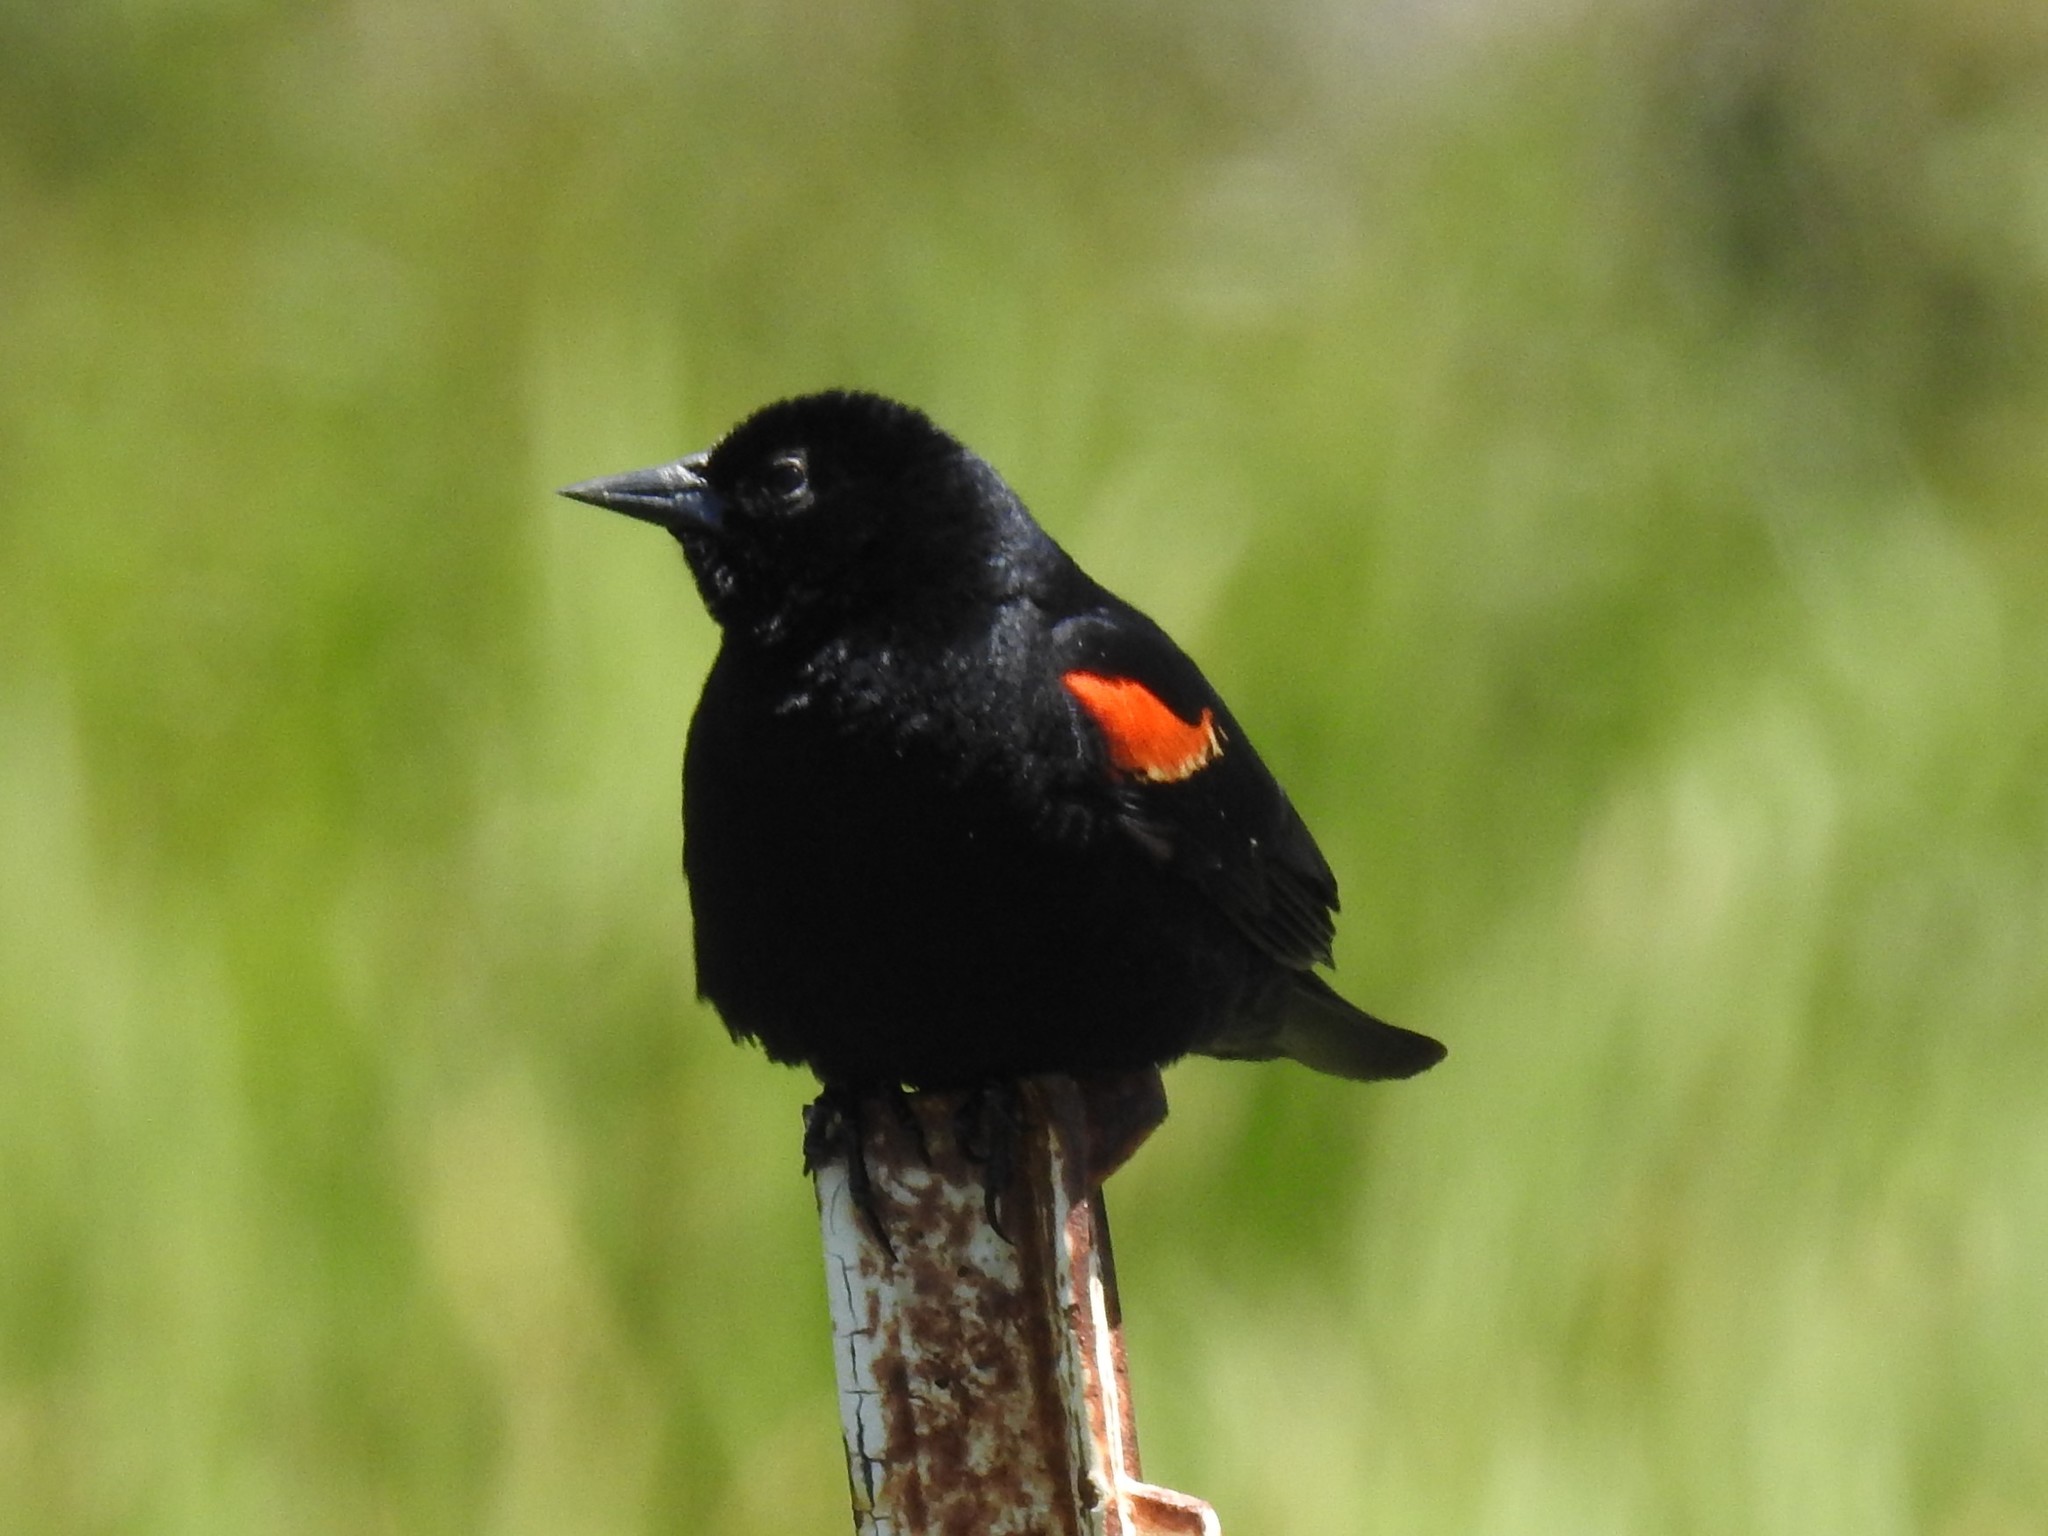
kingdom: Animalia
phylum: Chordata
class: Aves
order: Passeriformes
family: Icteridae
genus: Agelaius
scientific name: Agelaius phoeniceus
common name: Red-winged blackbird
